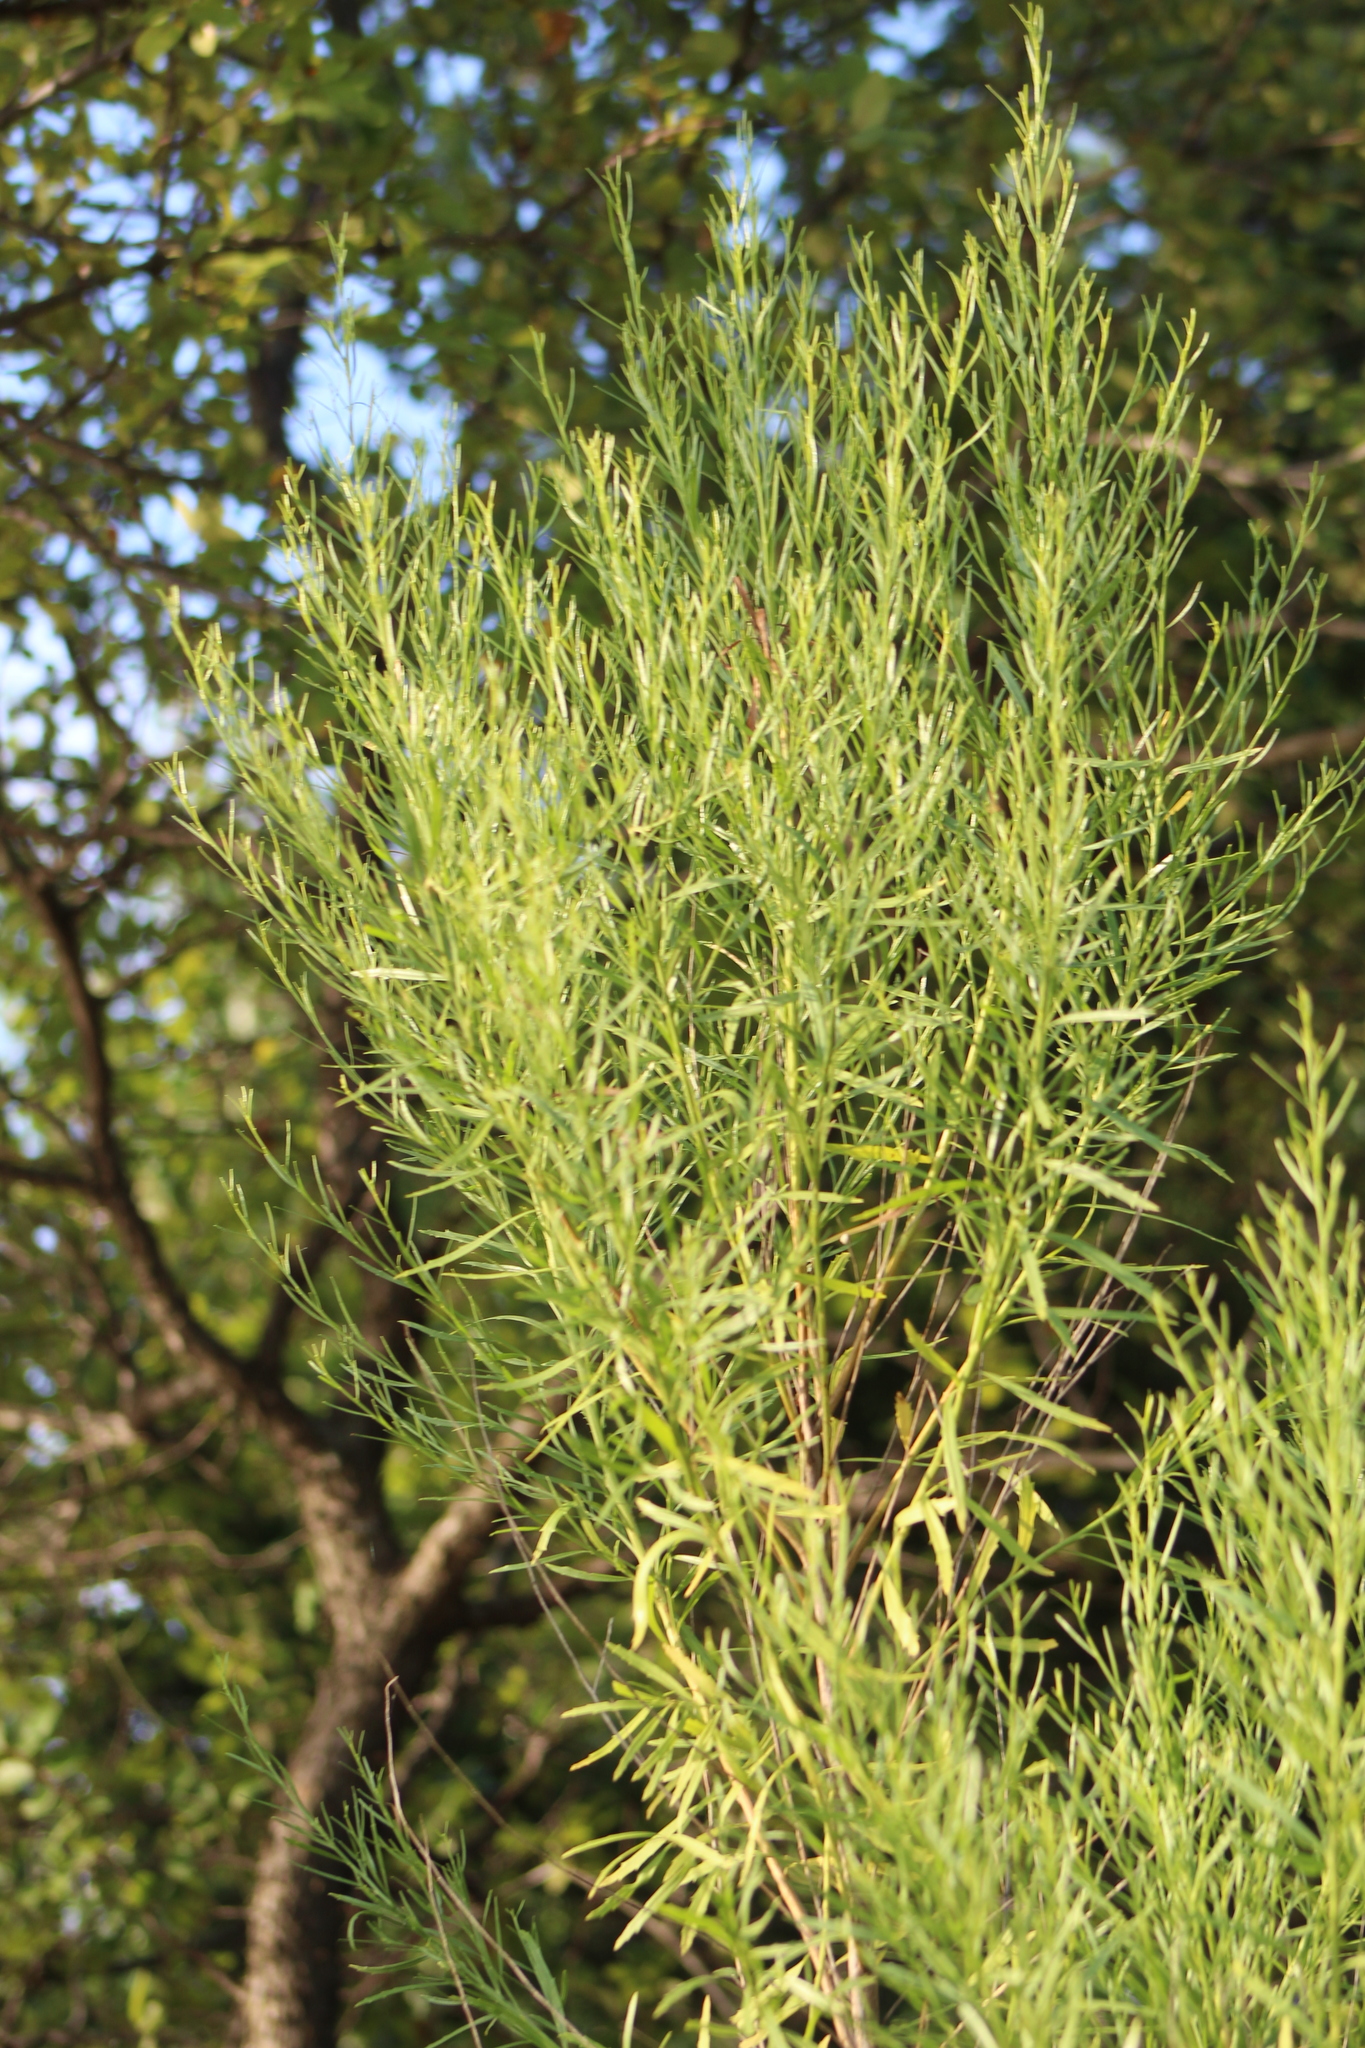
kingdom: Plantae
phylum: Tracheophyta
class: Magnoliopsida
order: Asterales
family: Asteraceae
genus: Baccharis
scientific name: Baccharis neglecta
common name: Roosevelt-weed
